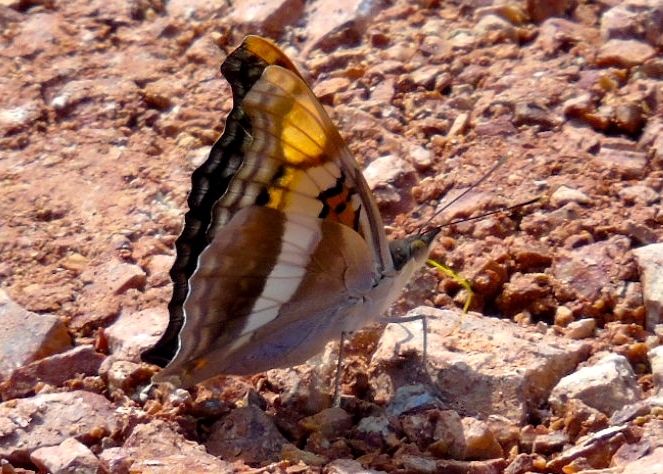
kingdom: Animalia
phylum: Arthropoda
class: Insecta
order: Lepidoptera
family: Nymphalidae
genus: Doxocopa
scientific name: Doxocopa laure
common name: Silver emperor
